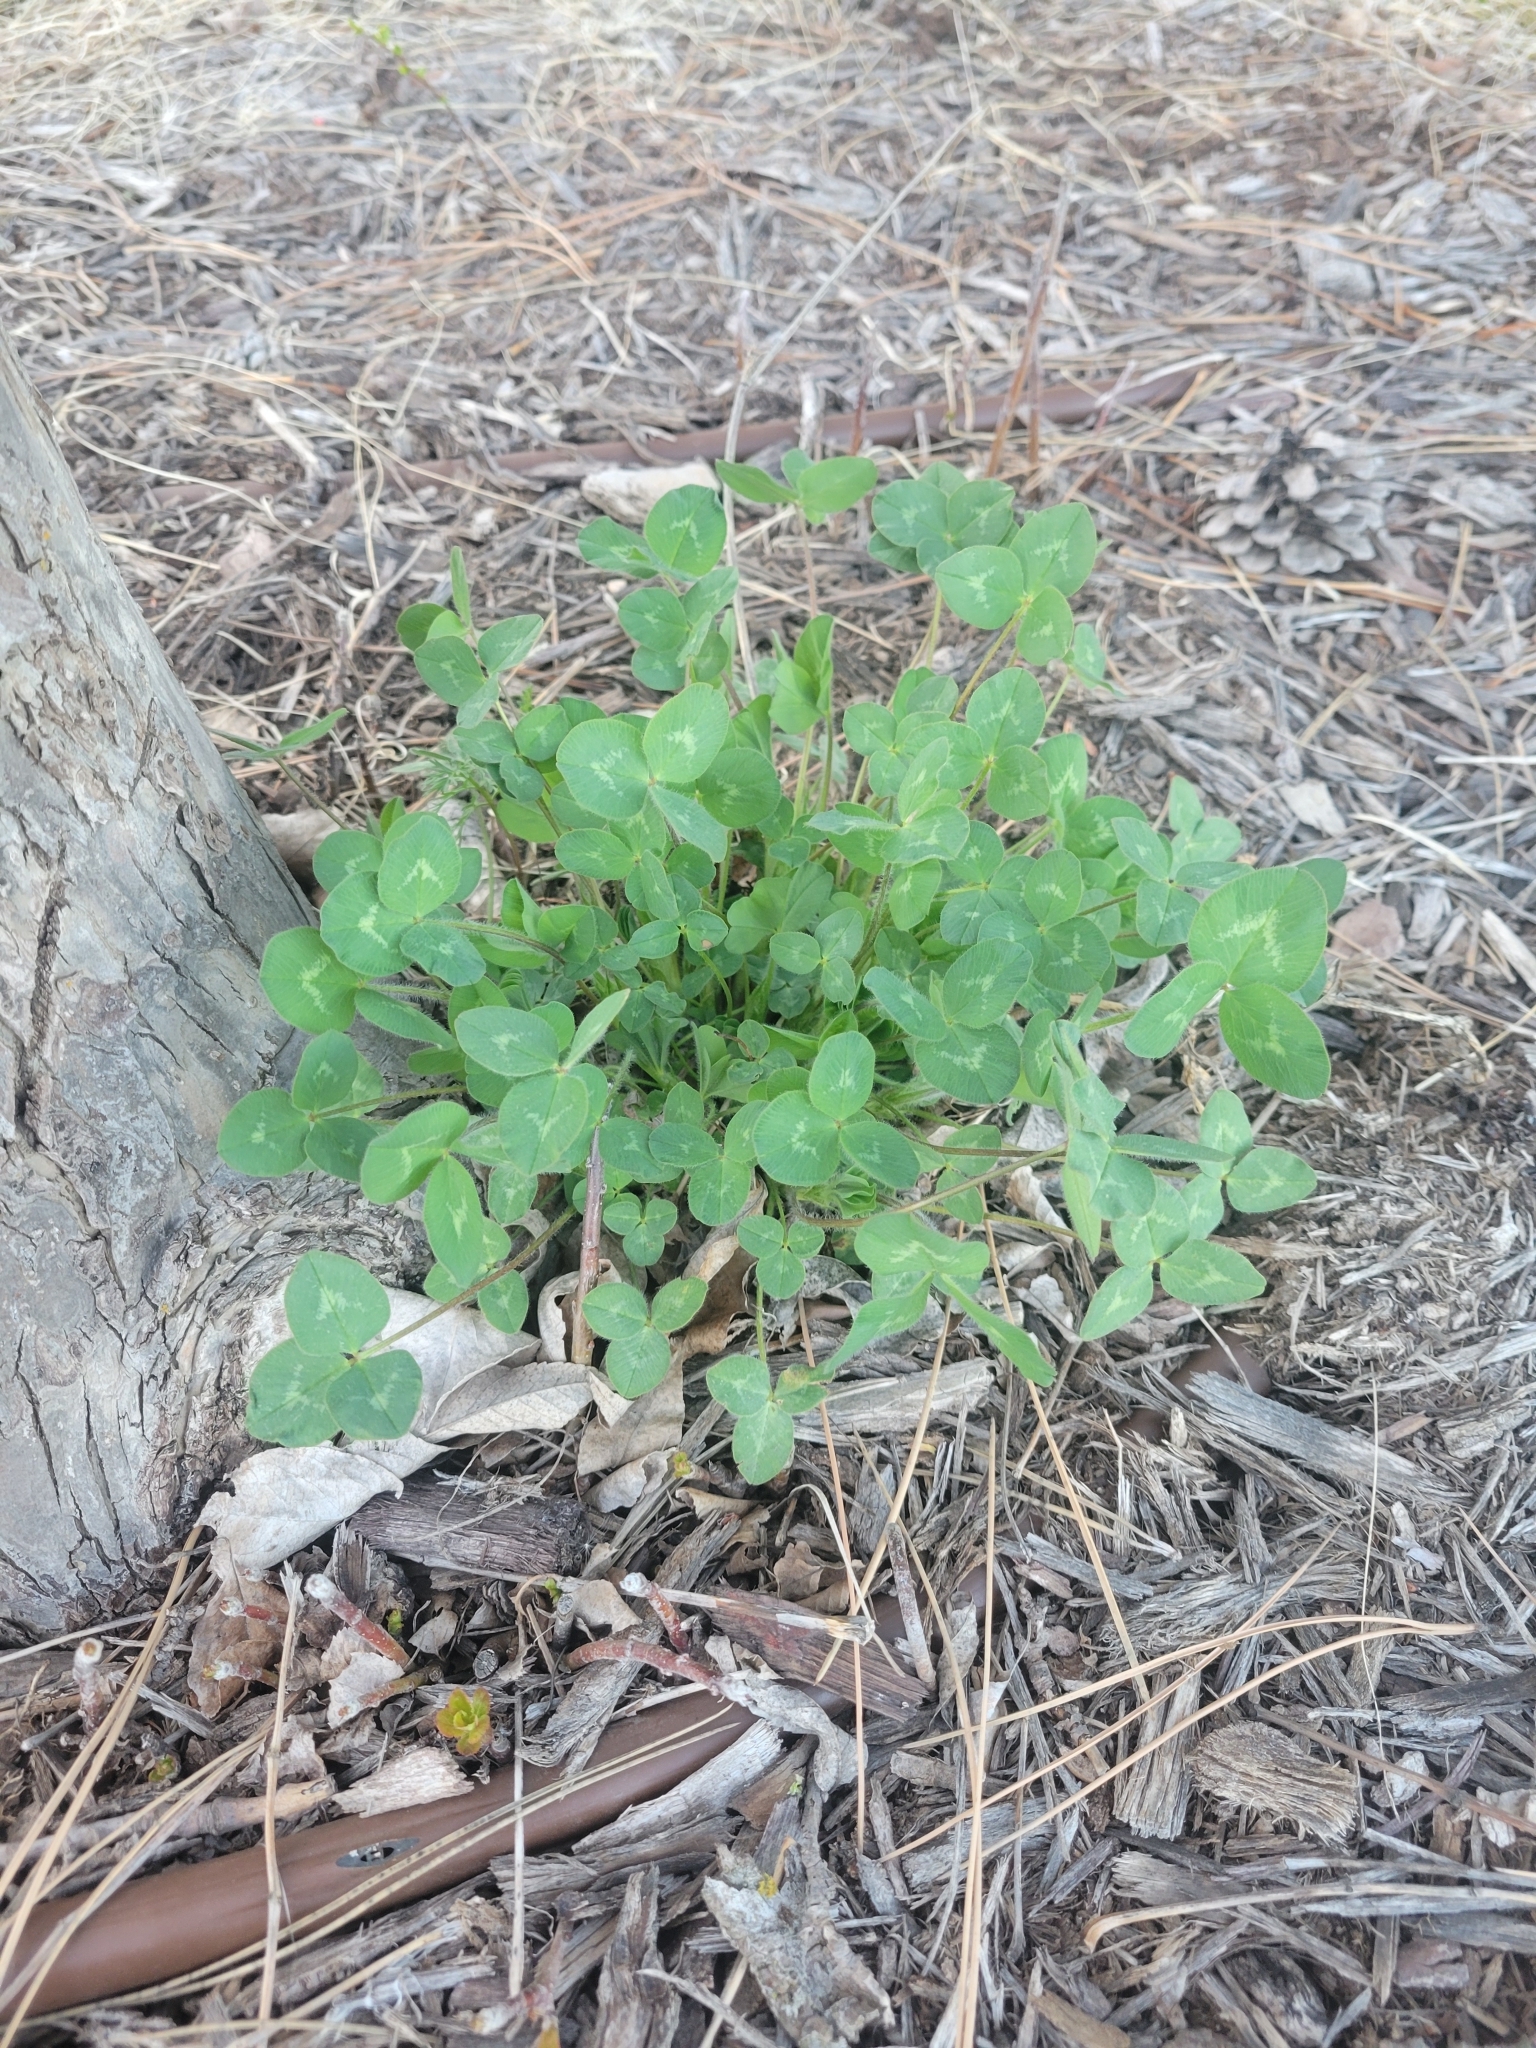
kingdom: Plantae
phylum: Tracheophyta
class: Magnoliopsida
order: Fabales
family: Fabaceae
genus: Trifolium
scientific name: Trifolium pratense
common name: Red clover
